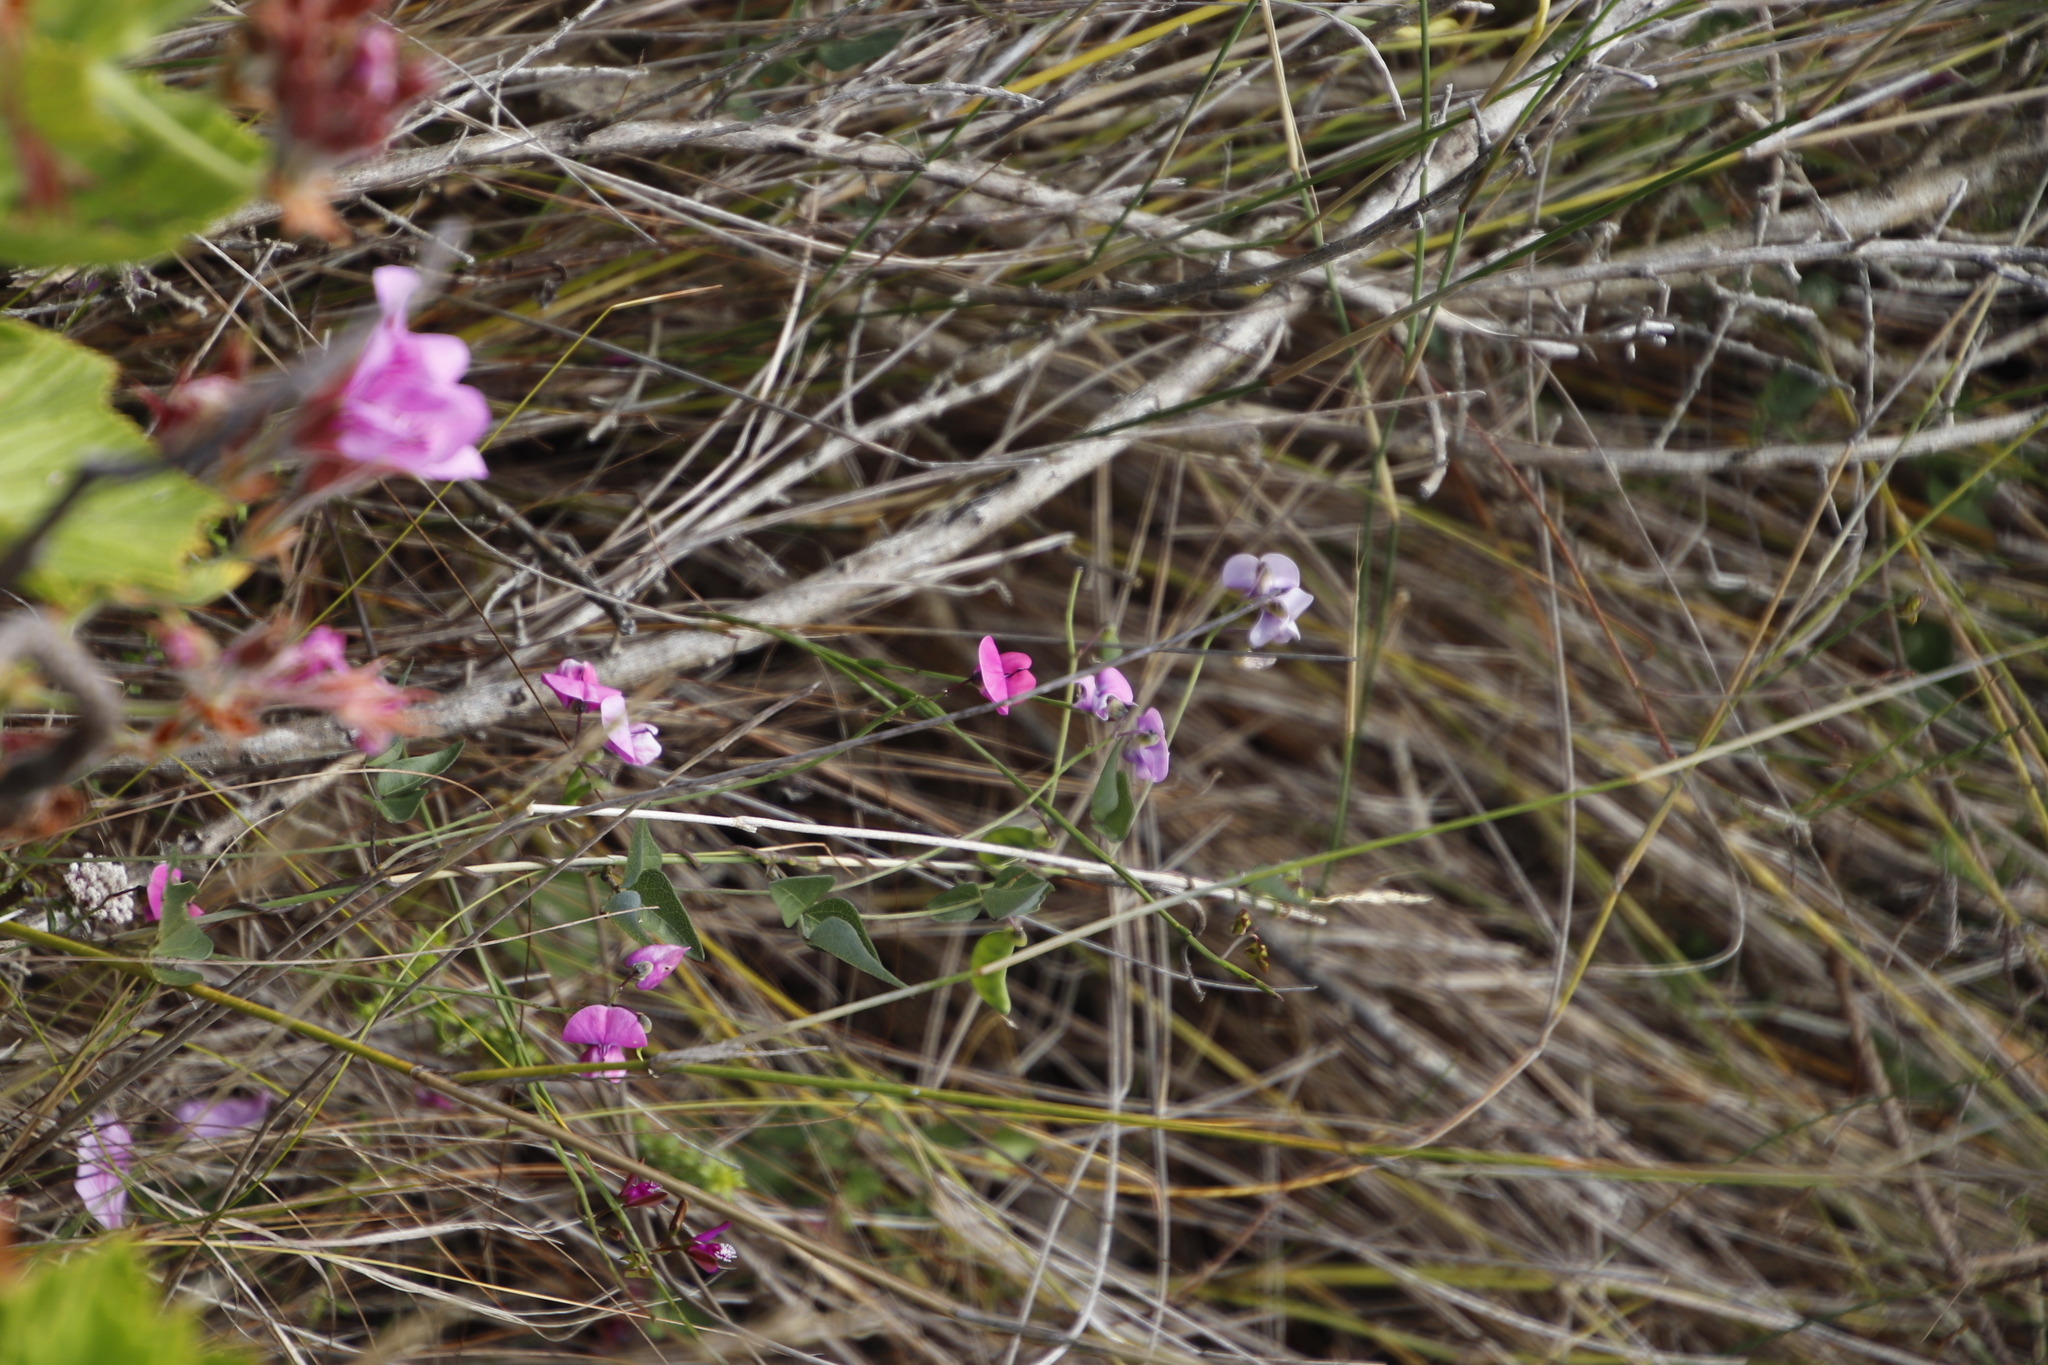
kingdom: Plantae
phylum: Tracheophyta
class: Magnoliopsida
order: Fabales
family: Fabaceae
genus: Dipogon
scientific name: Dipogon lignosus
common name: Okie bean
